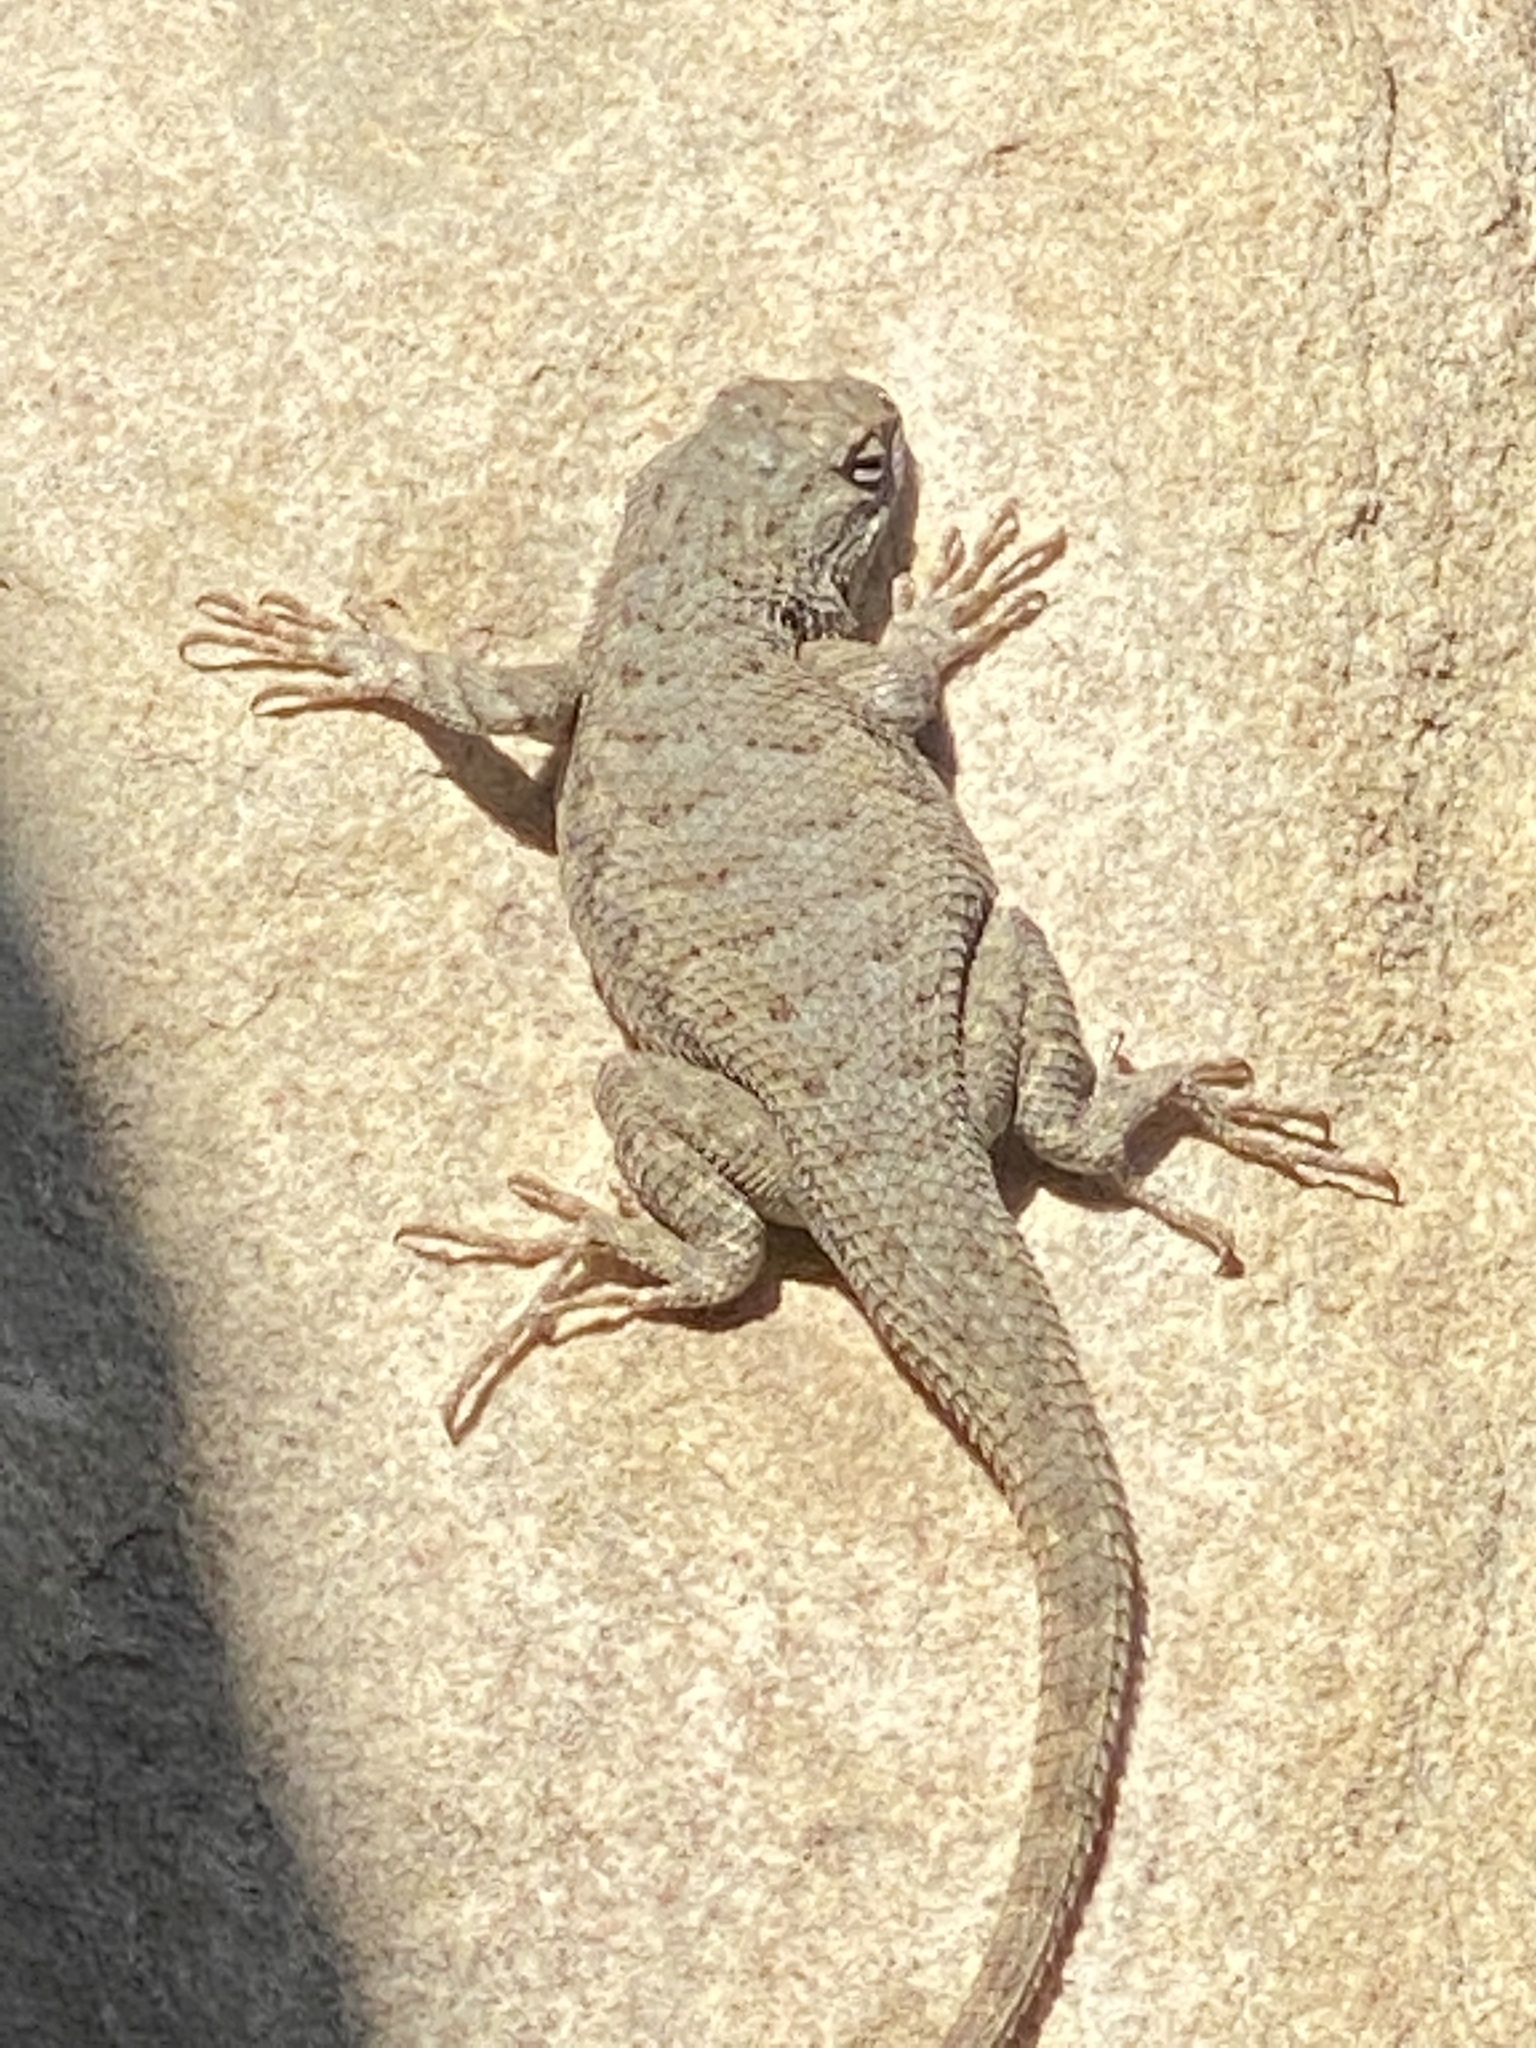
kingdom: Animalia
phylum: Chordata
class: Squamata
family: Phrynosomatidae
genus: Sceloporus
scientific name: Sceloporus tristichus
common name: Plateau fence lizard
